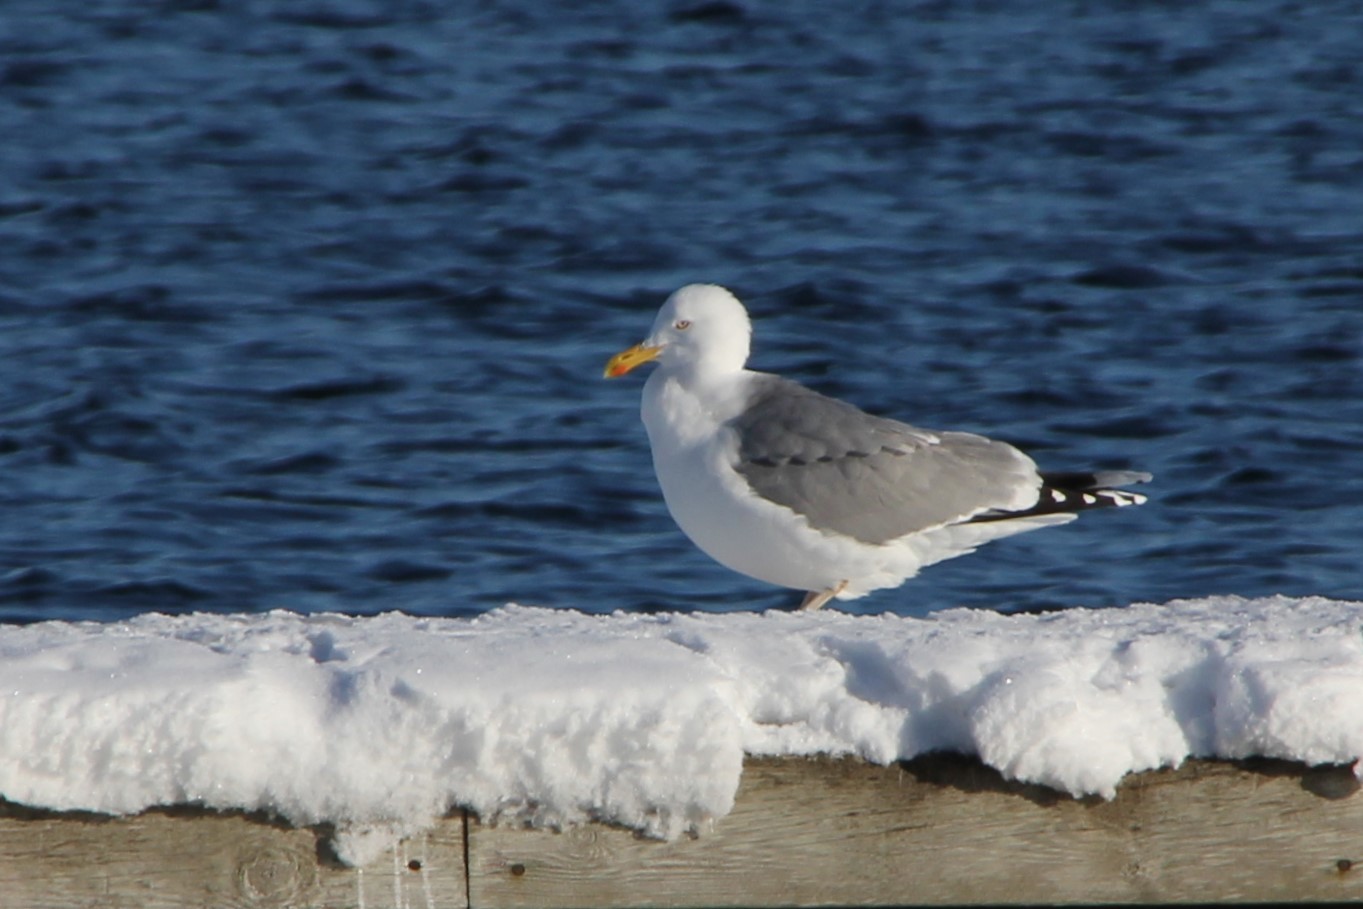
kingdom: Animalia
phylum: Chordata
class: Aves
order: Charadriiformes
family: Laridae
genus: Larus
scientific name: Larus argentatus
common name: Herring gull
